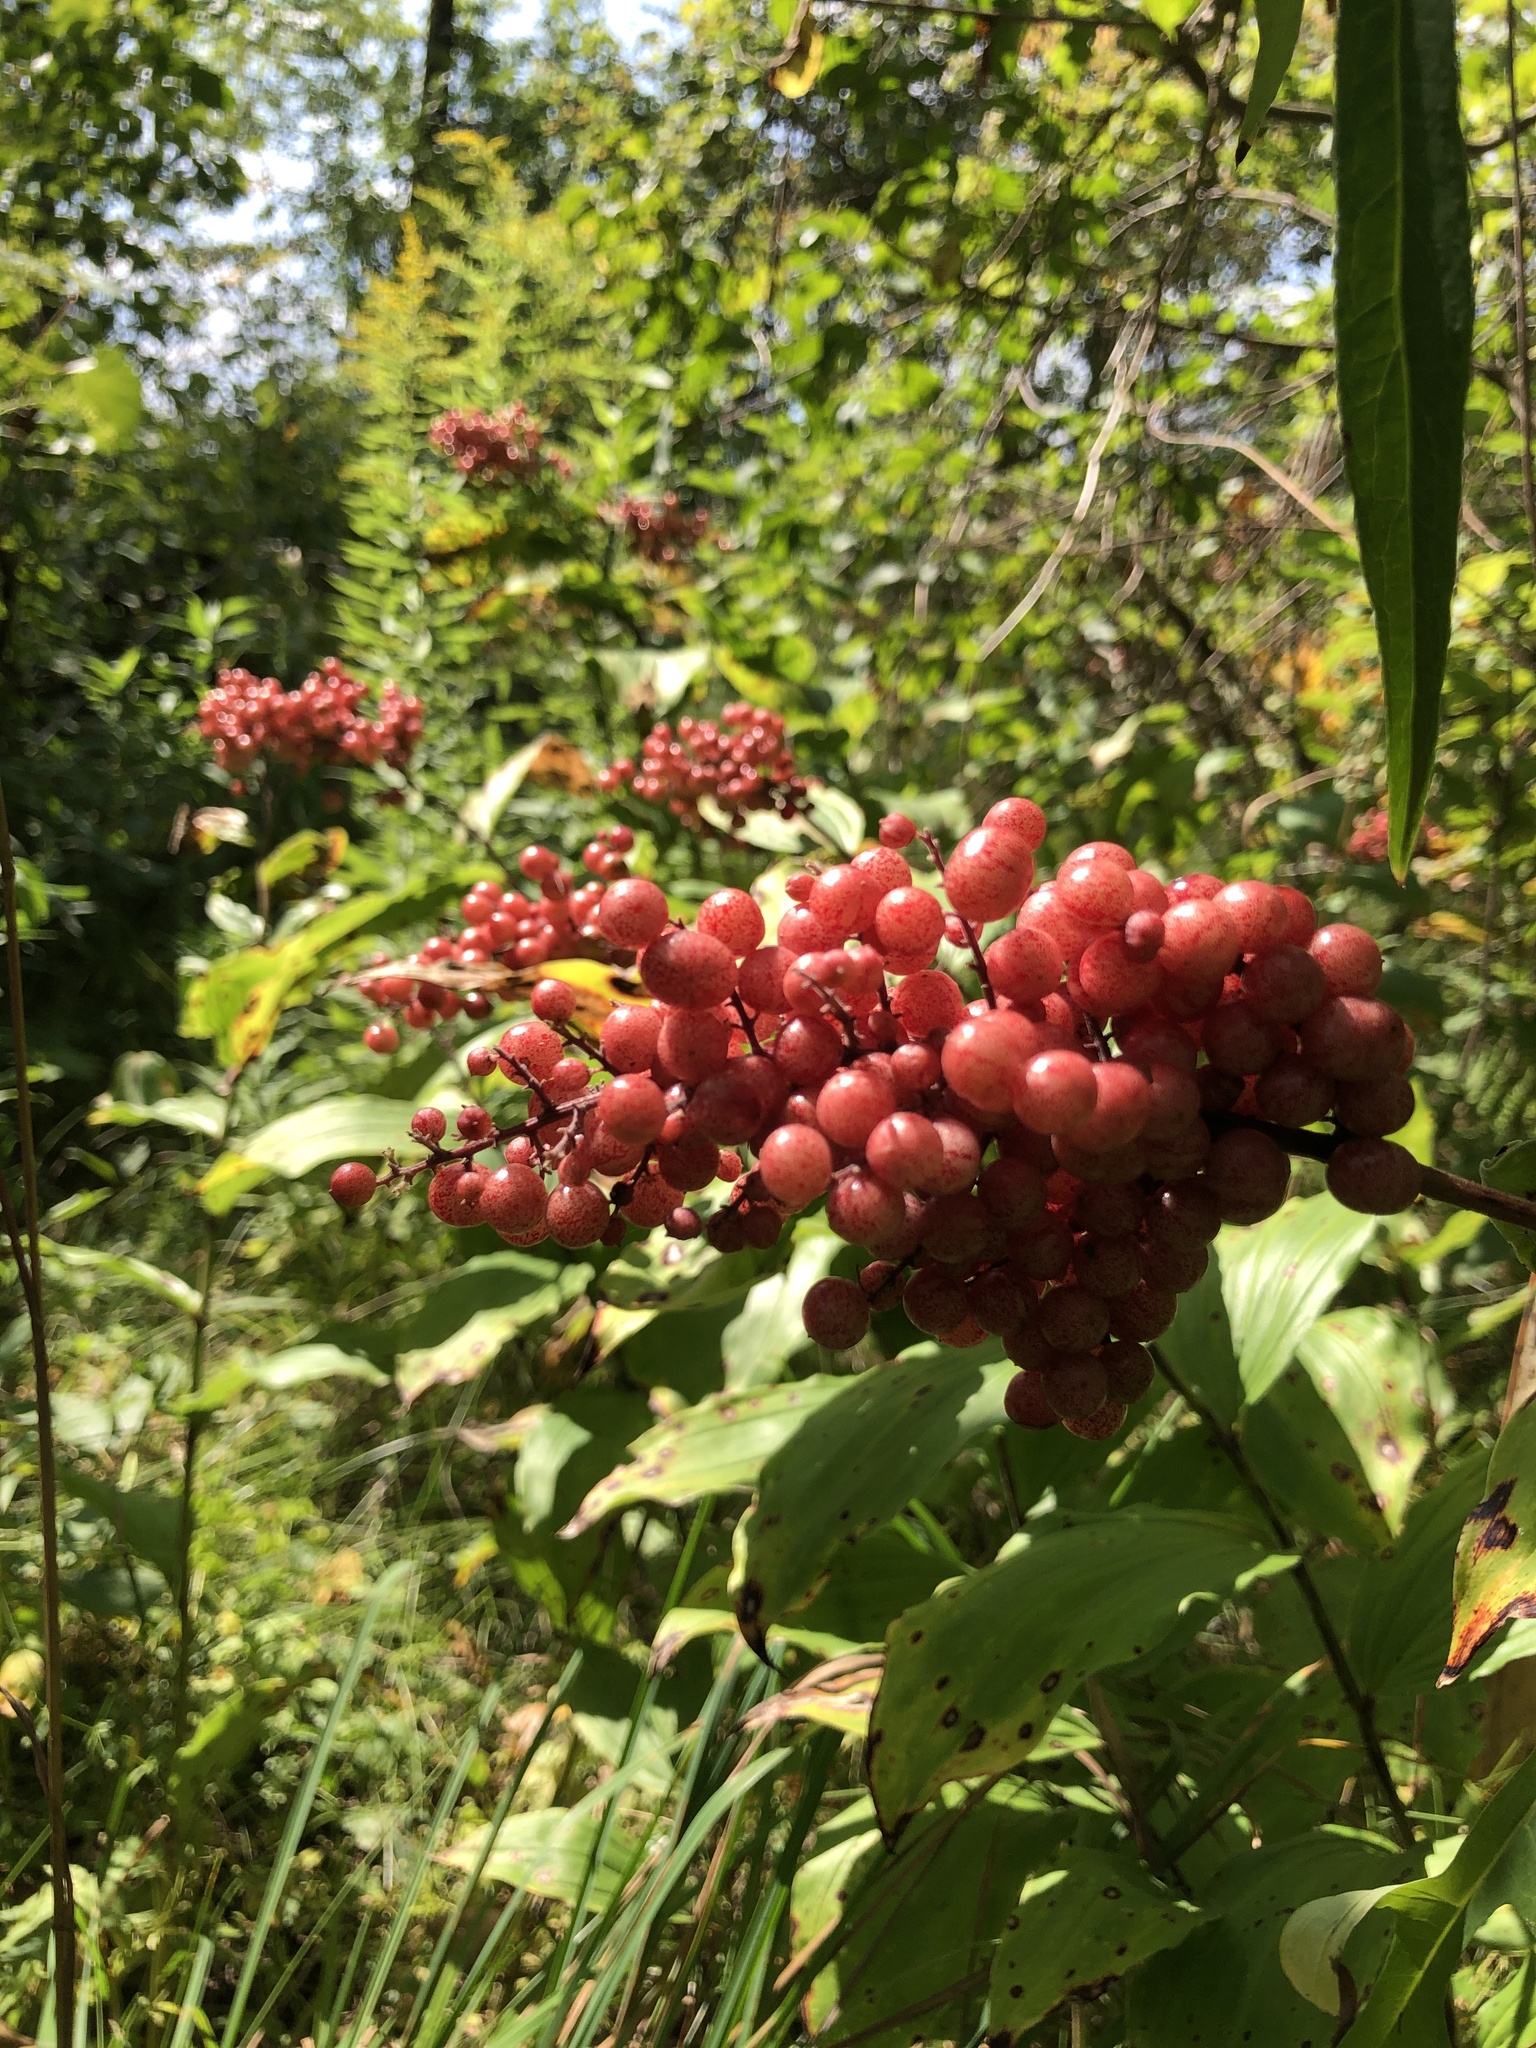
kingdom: Plantae
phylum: Tracheophyta
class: Liliopsida
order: Asparagales
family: Asparagaceae
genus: Maianthemum
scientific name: Maianthemum racemosum
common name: False spikenard
